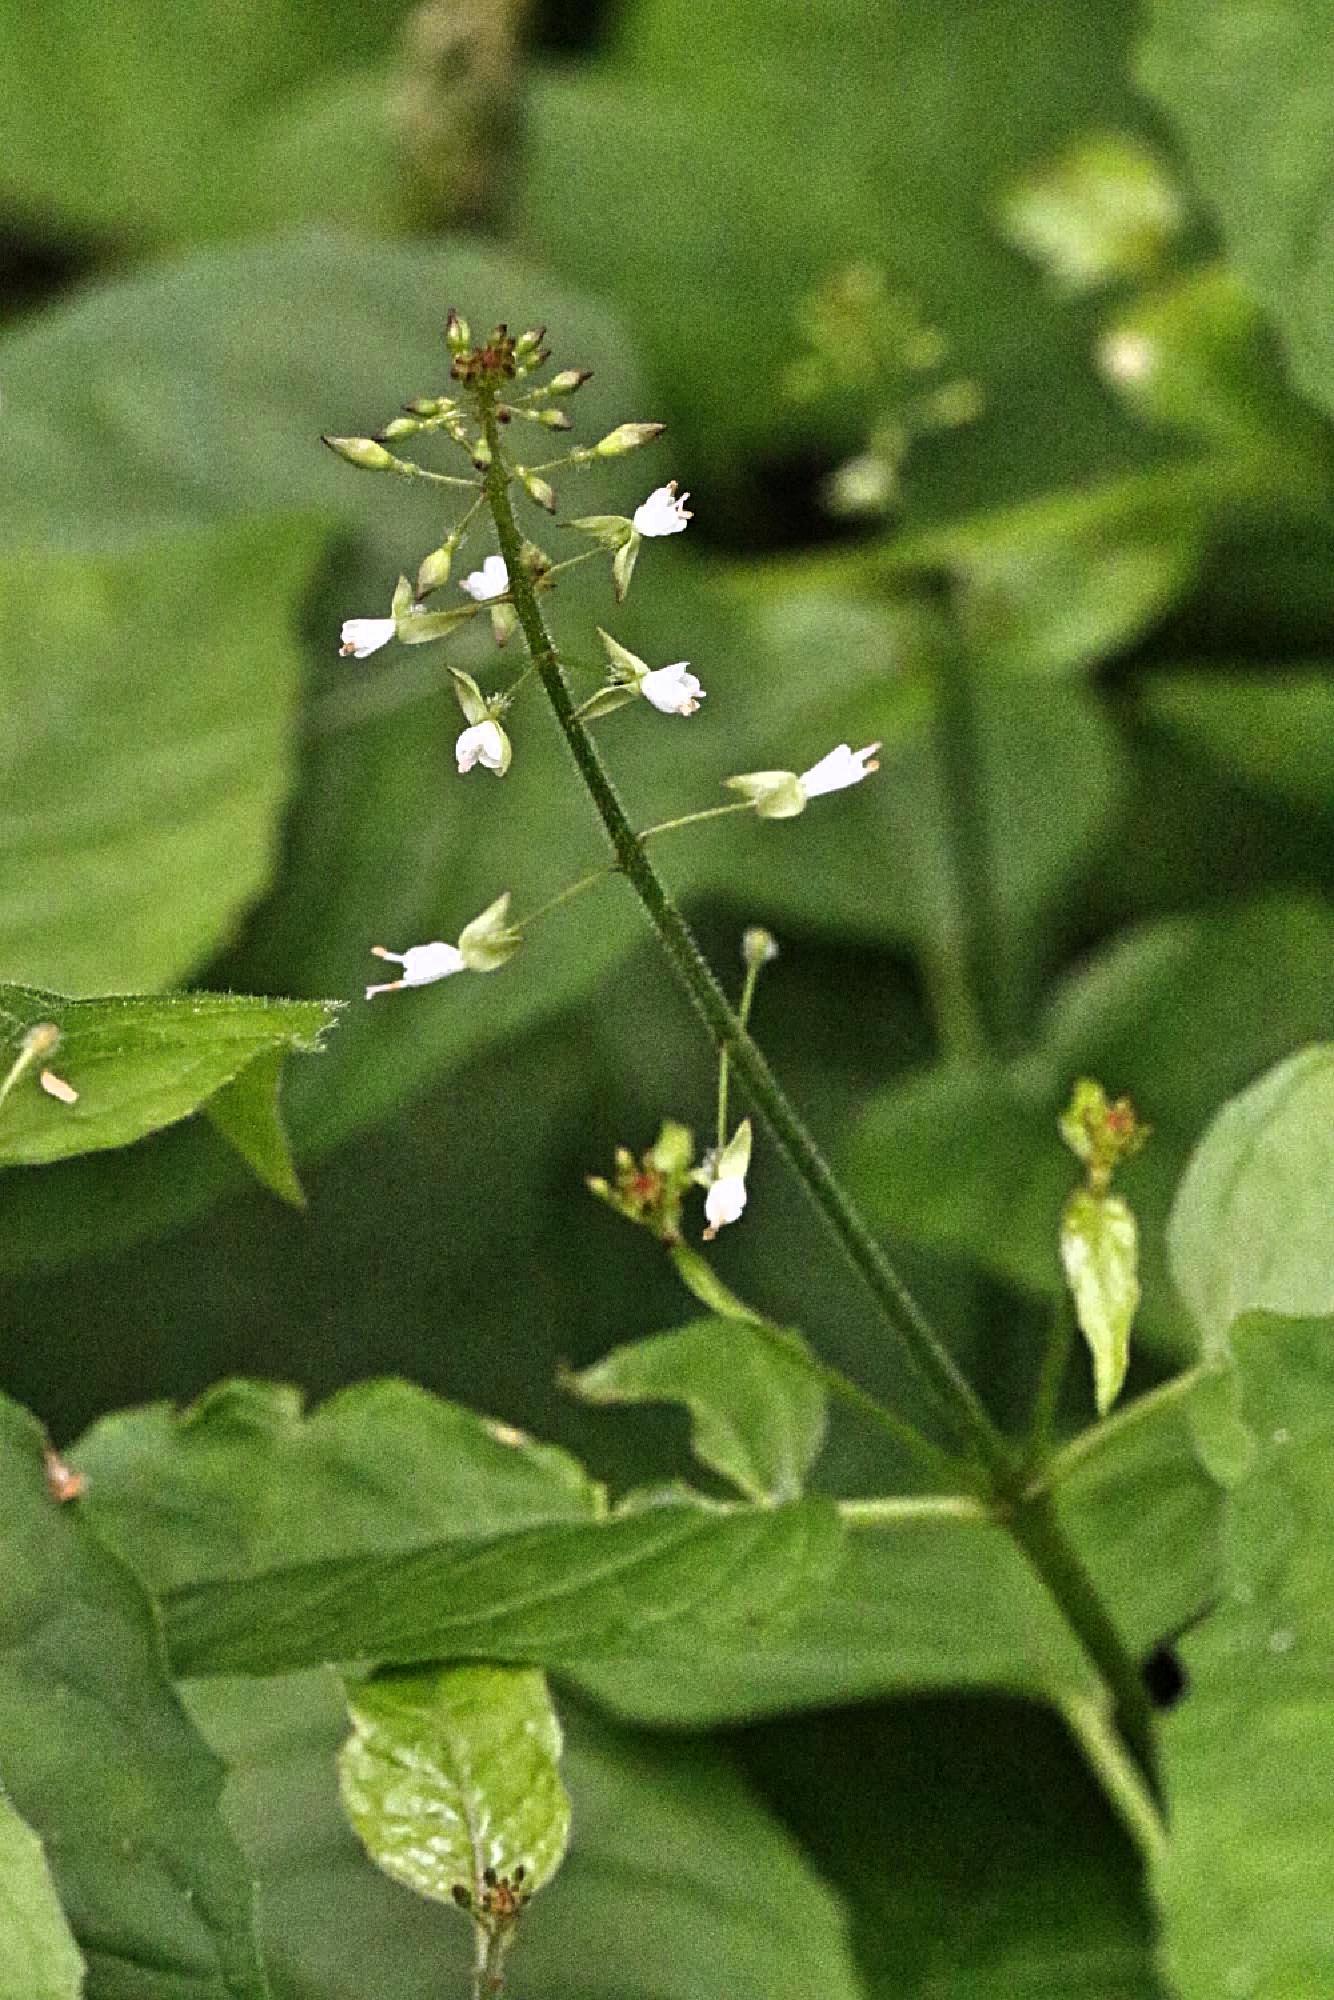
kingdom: Plantae
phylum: Tracheophyta
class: Magnoliopsida
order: Myrtales
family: Onagraceae
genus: Circaea
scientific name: Circaea lutetiana
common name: Enchanter's-nightshade
